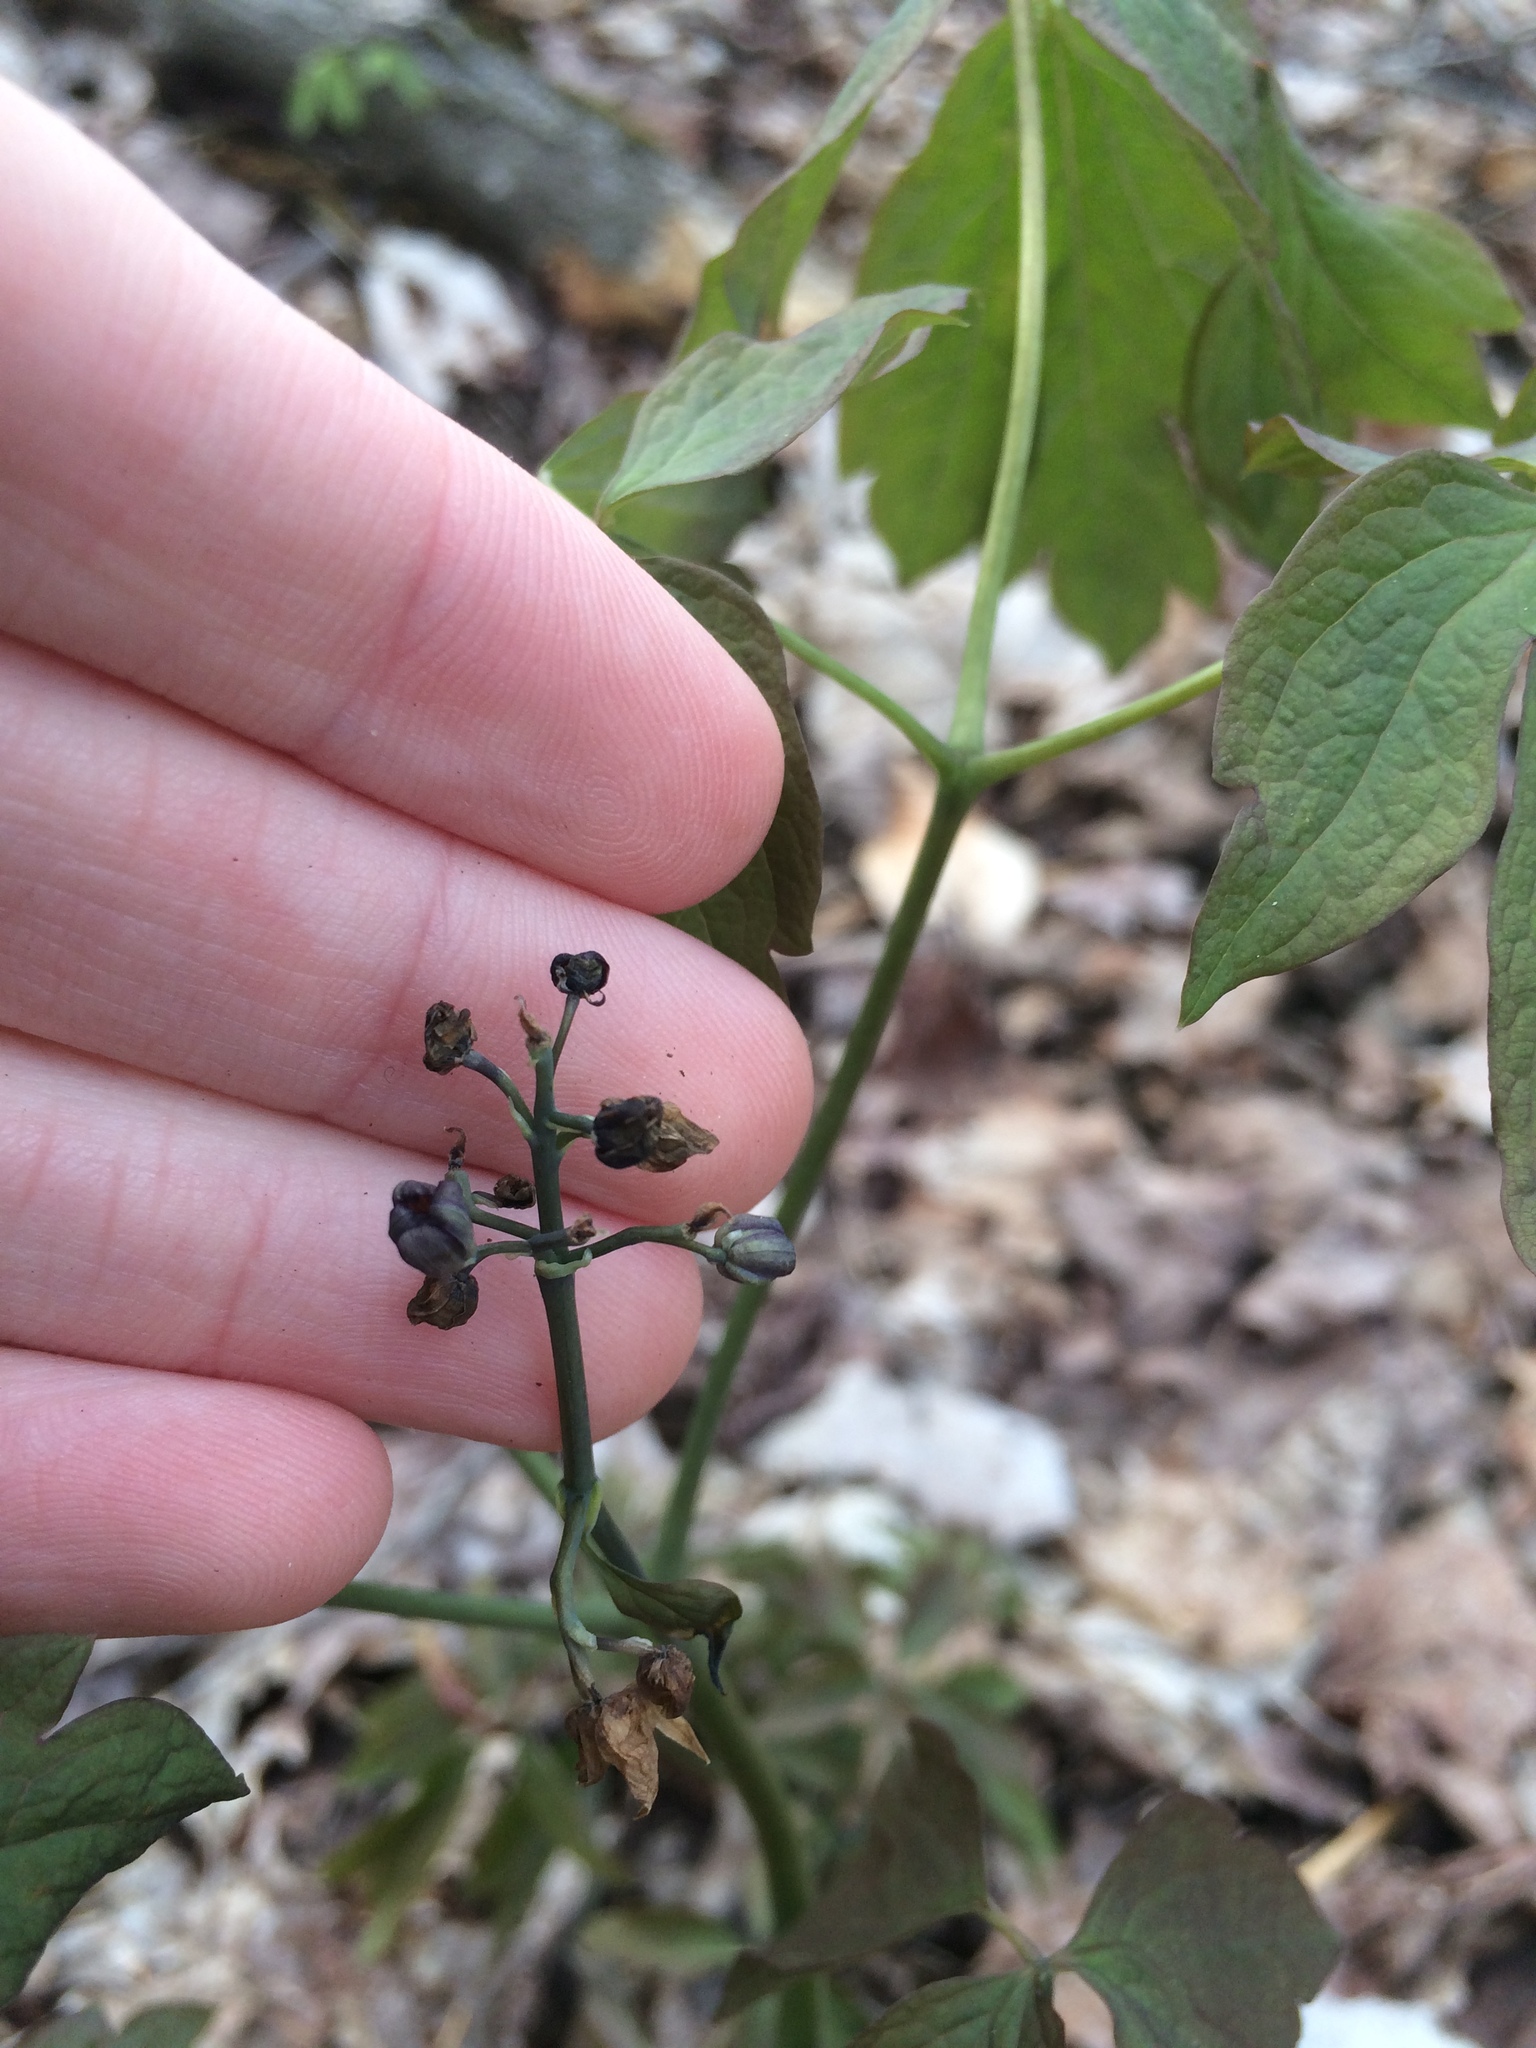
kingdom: Plantae
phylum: Tracheophyta
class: Magnoliopsida
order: Ranunculales
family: Berberidaceae
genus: Caulophyllum
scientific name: Caulophyllum
